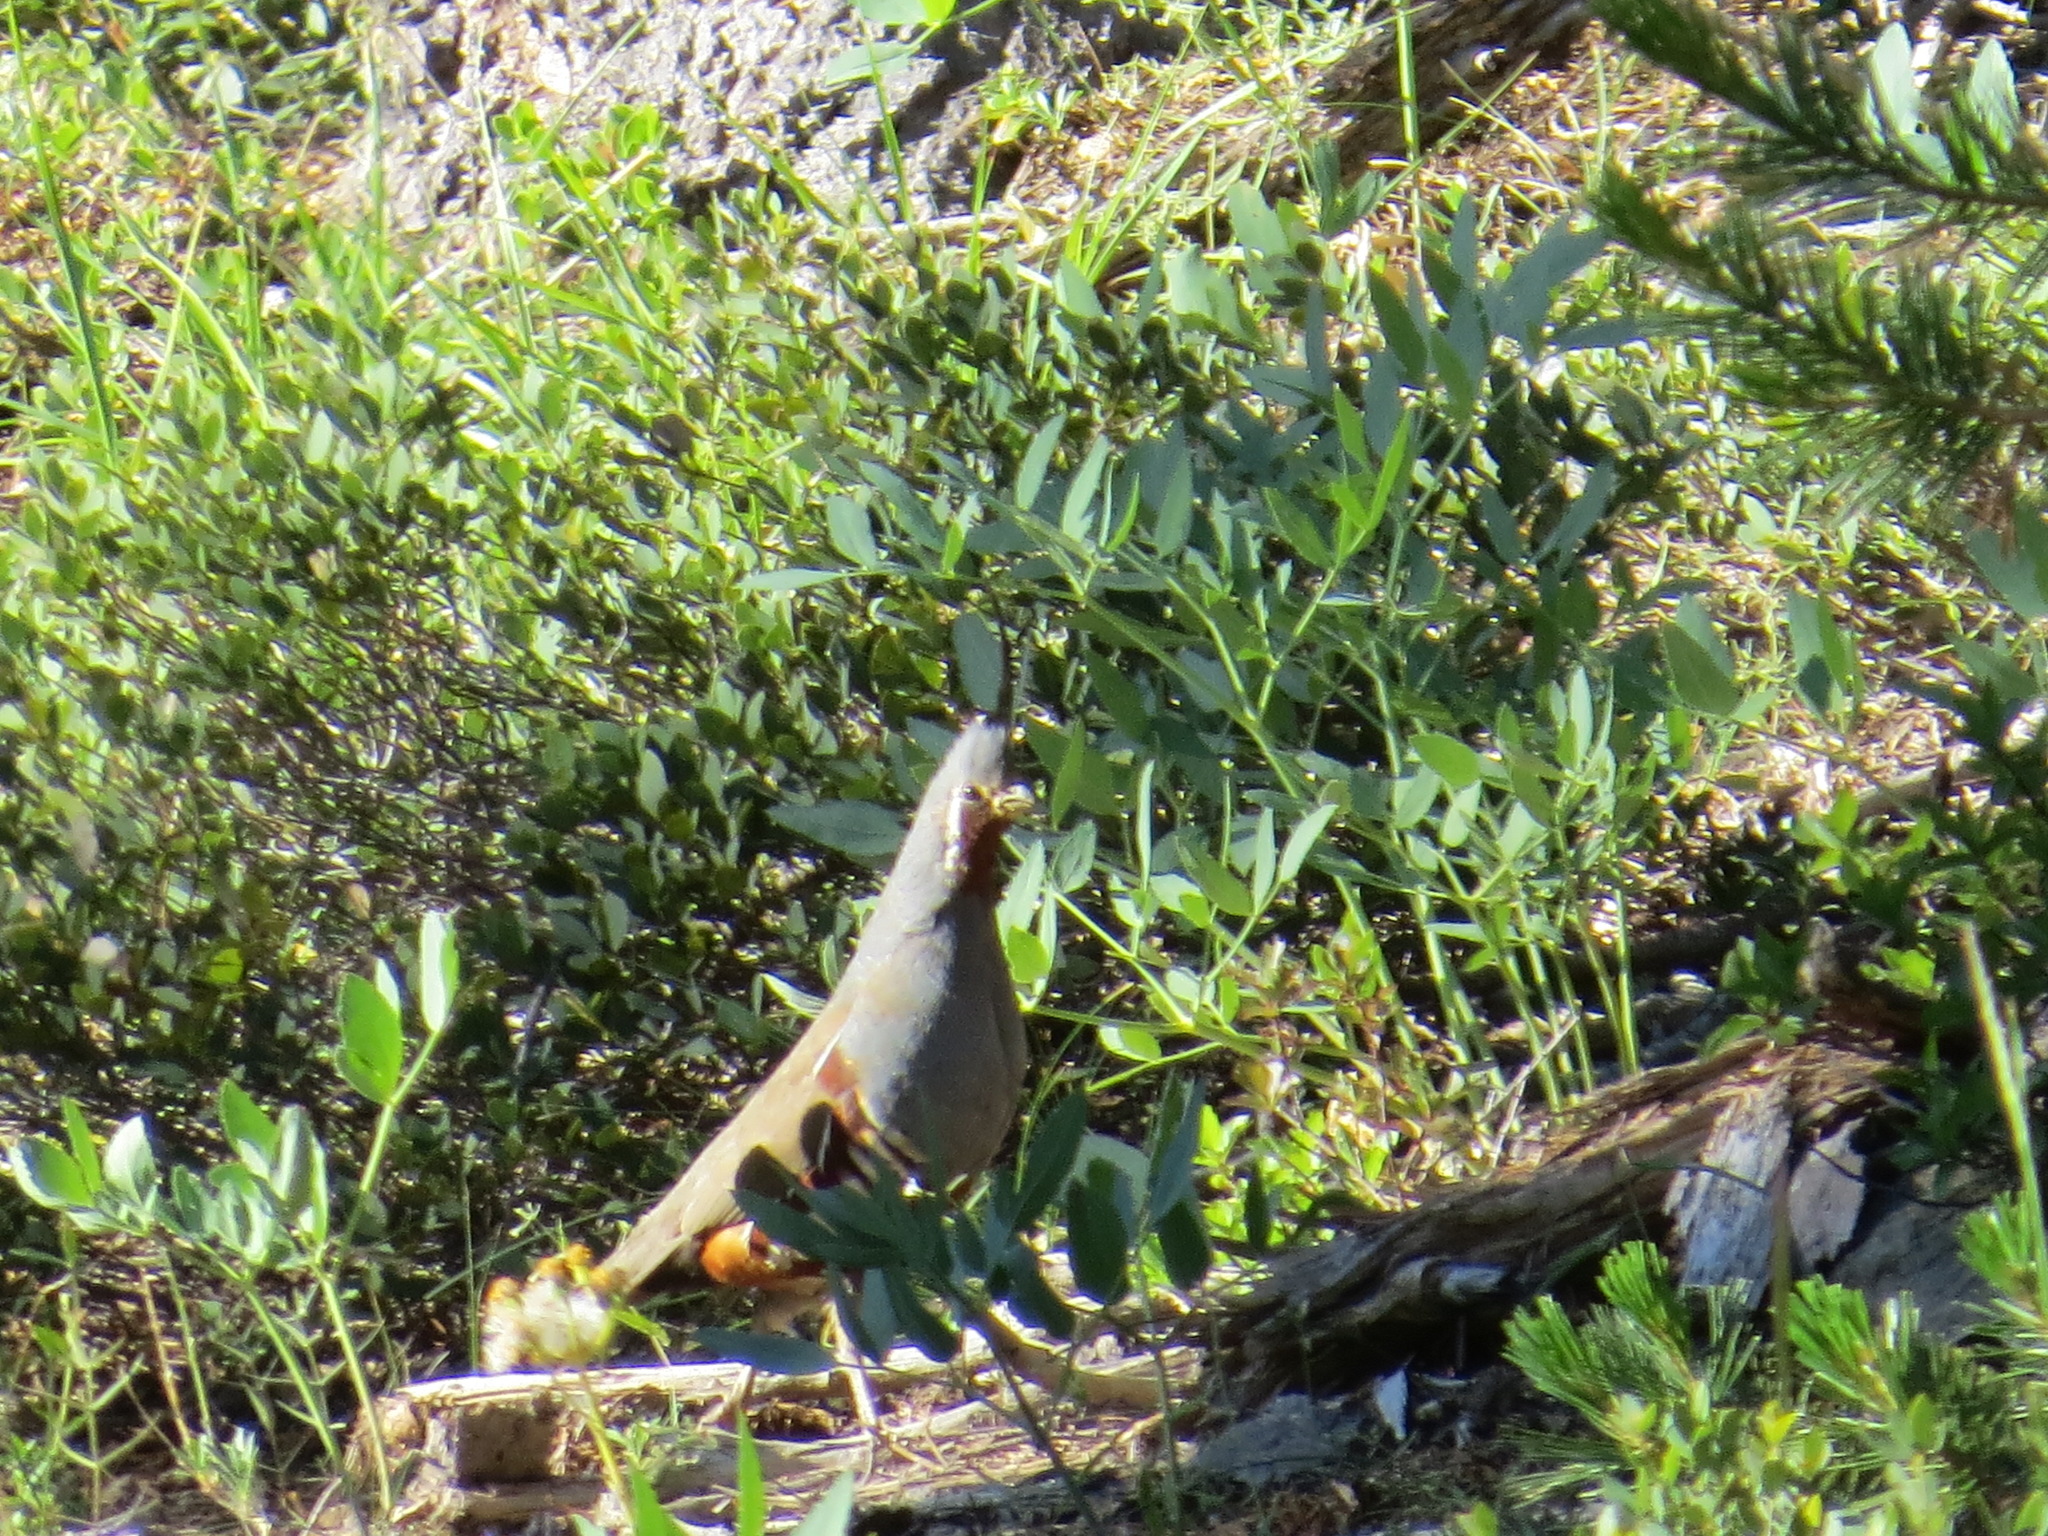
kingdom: Animalia
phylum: Chordata
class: Aves
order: Galliformes
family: Odontophoridae
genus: Oreortyx
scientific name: Oreortyx pictus
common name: Mountain quail
